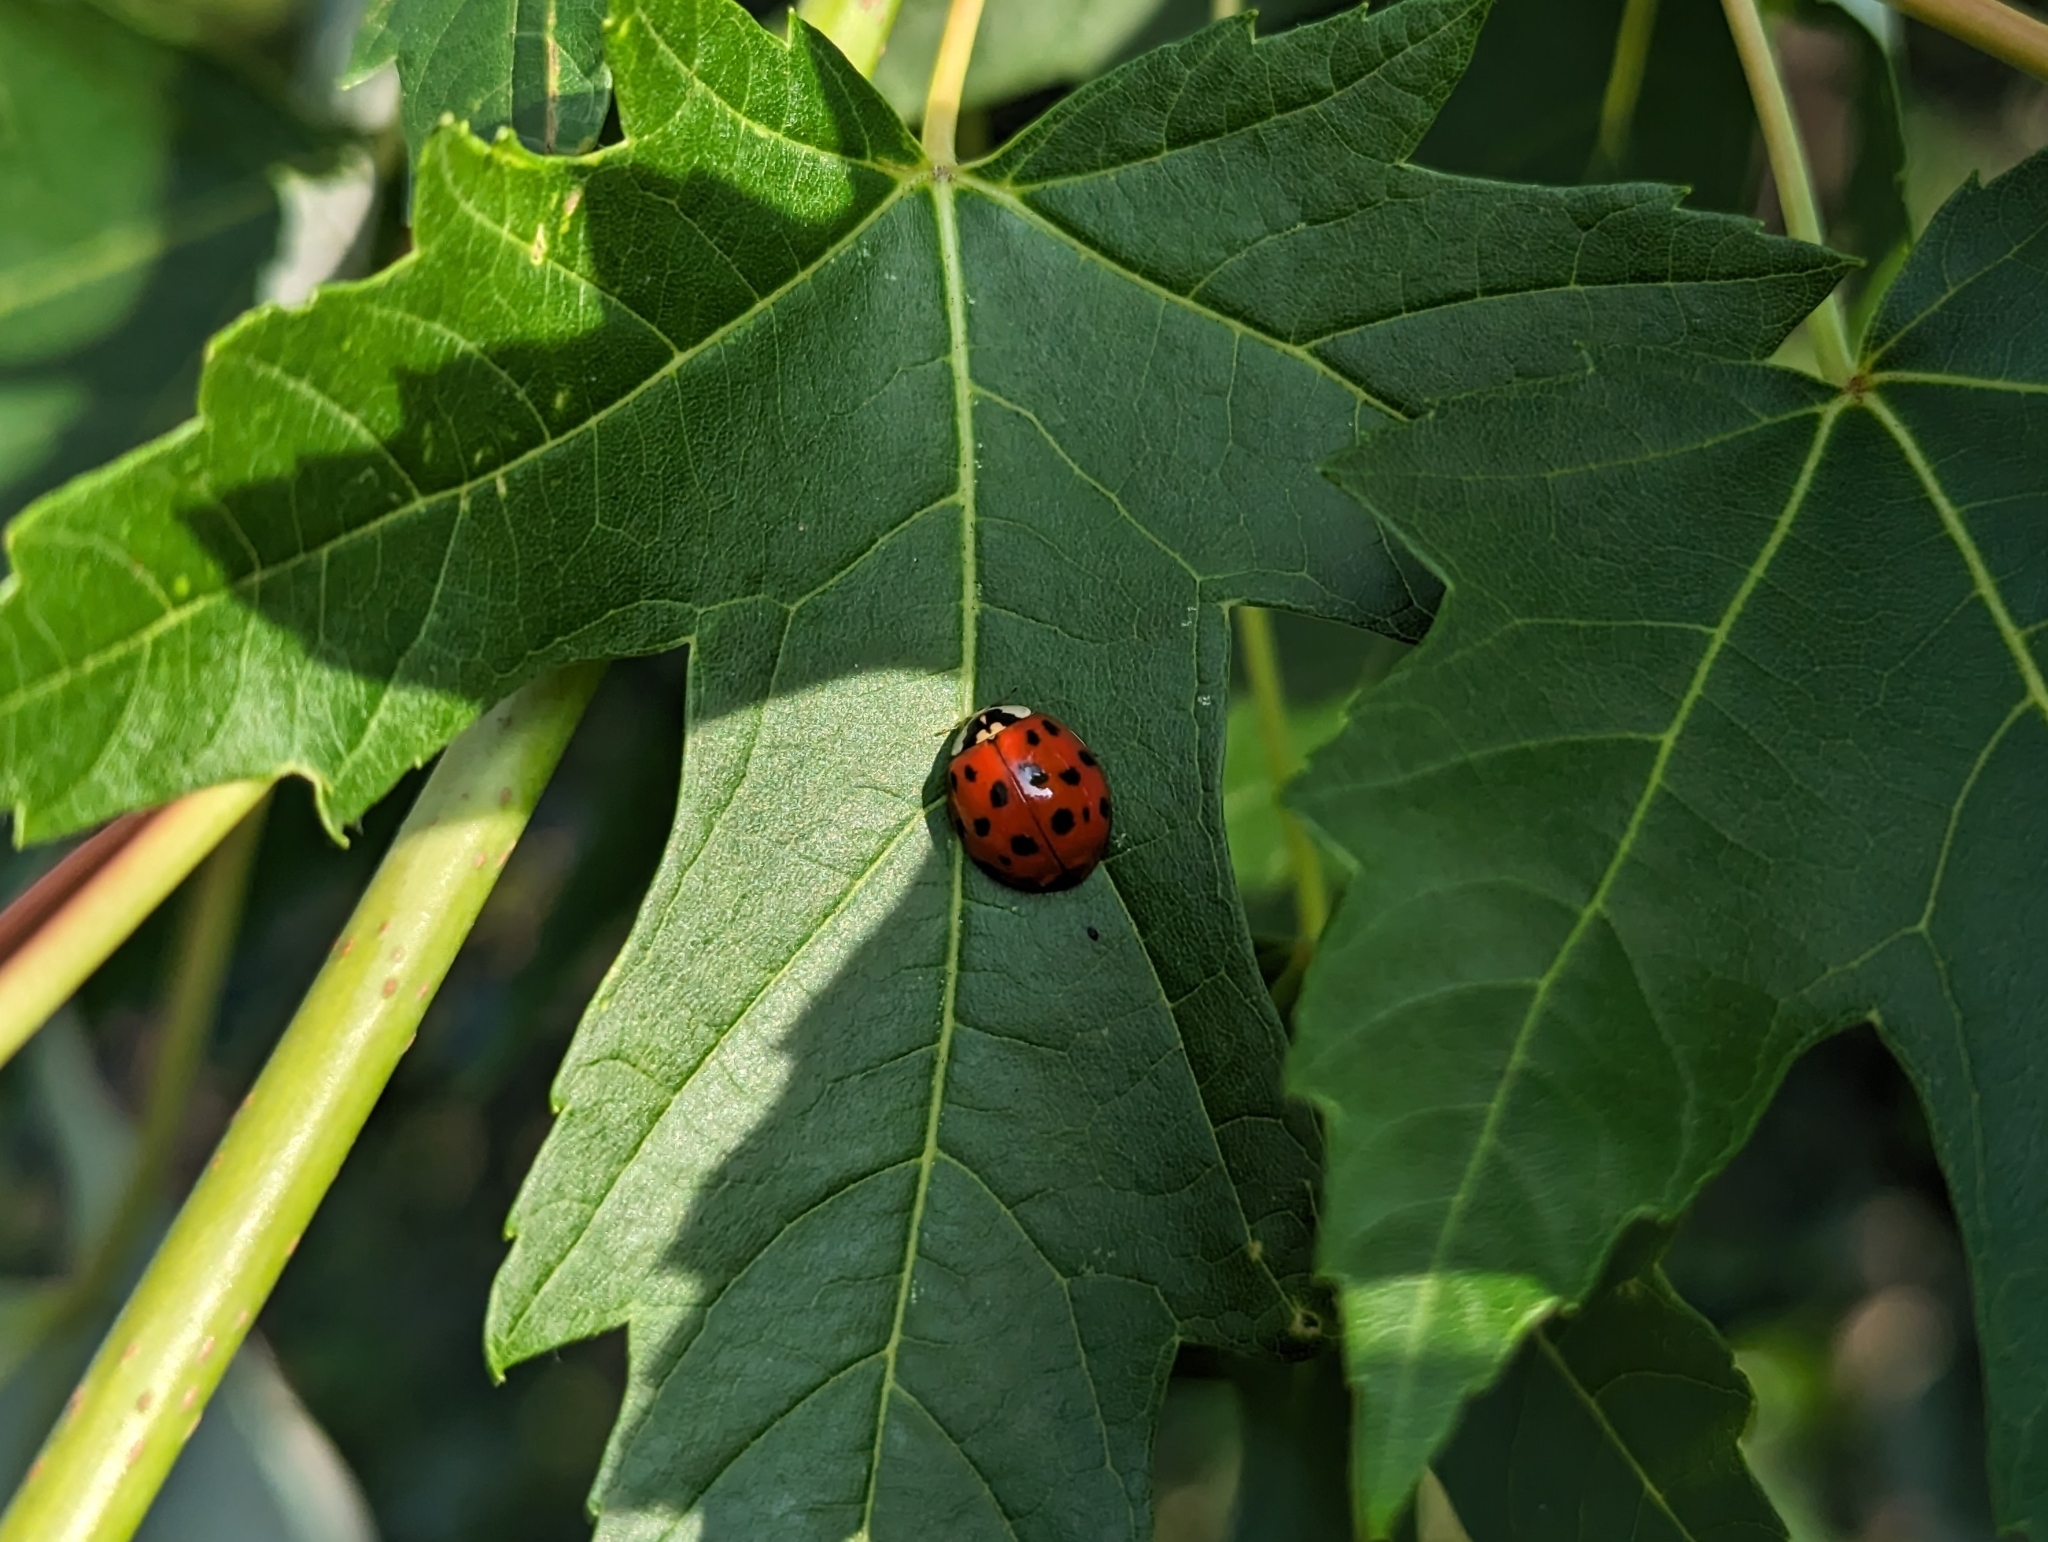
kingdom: Animalia
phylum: Arthropoda
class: Insecta
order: Coleoptera
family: Coccinellidae
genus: Harmonia
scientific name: Harmonia axyridis
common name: Harlequin ladybird
